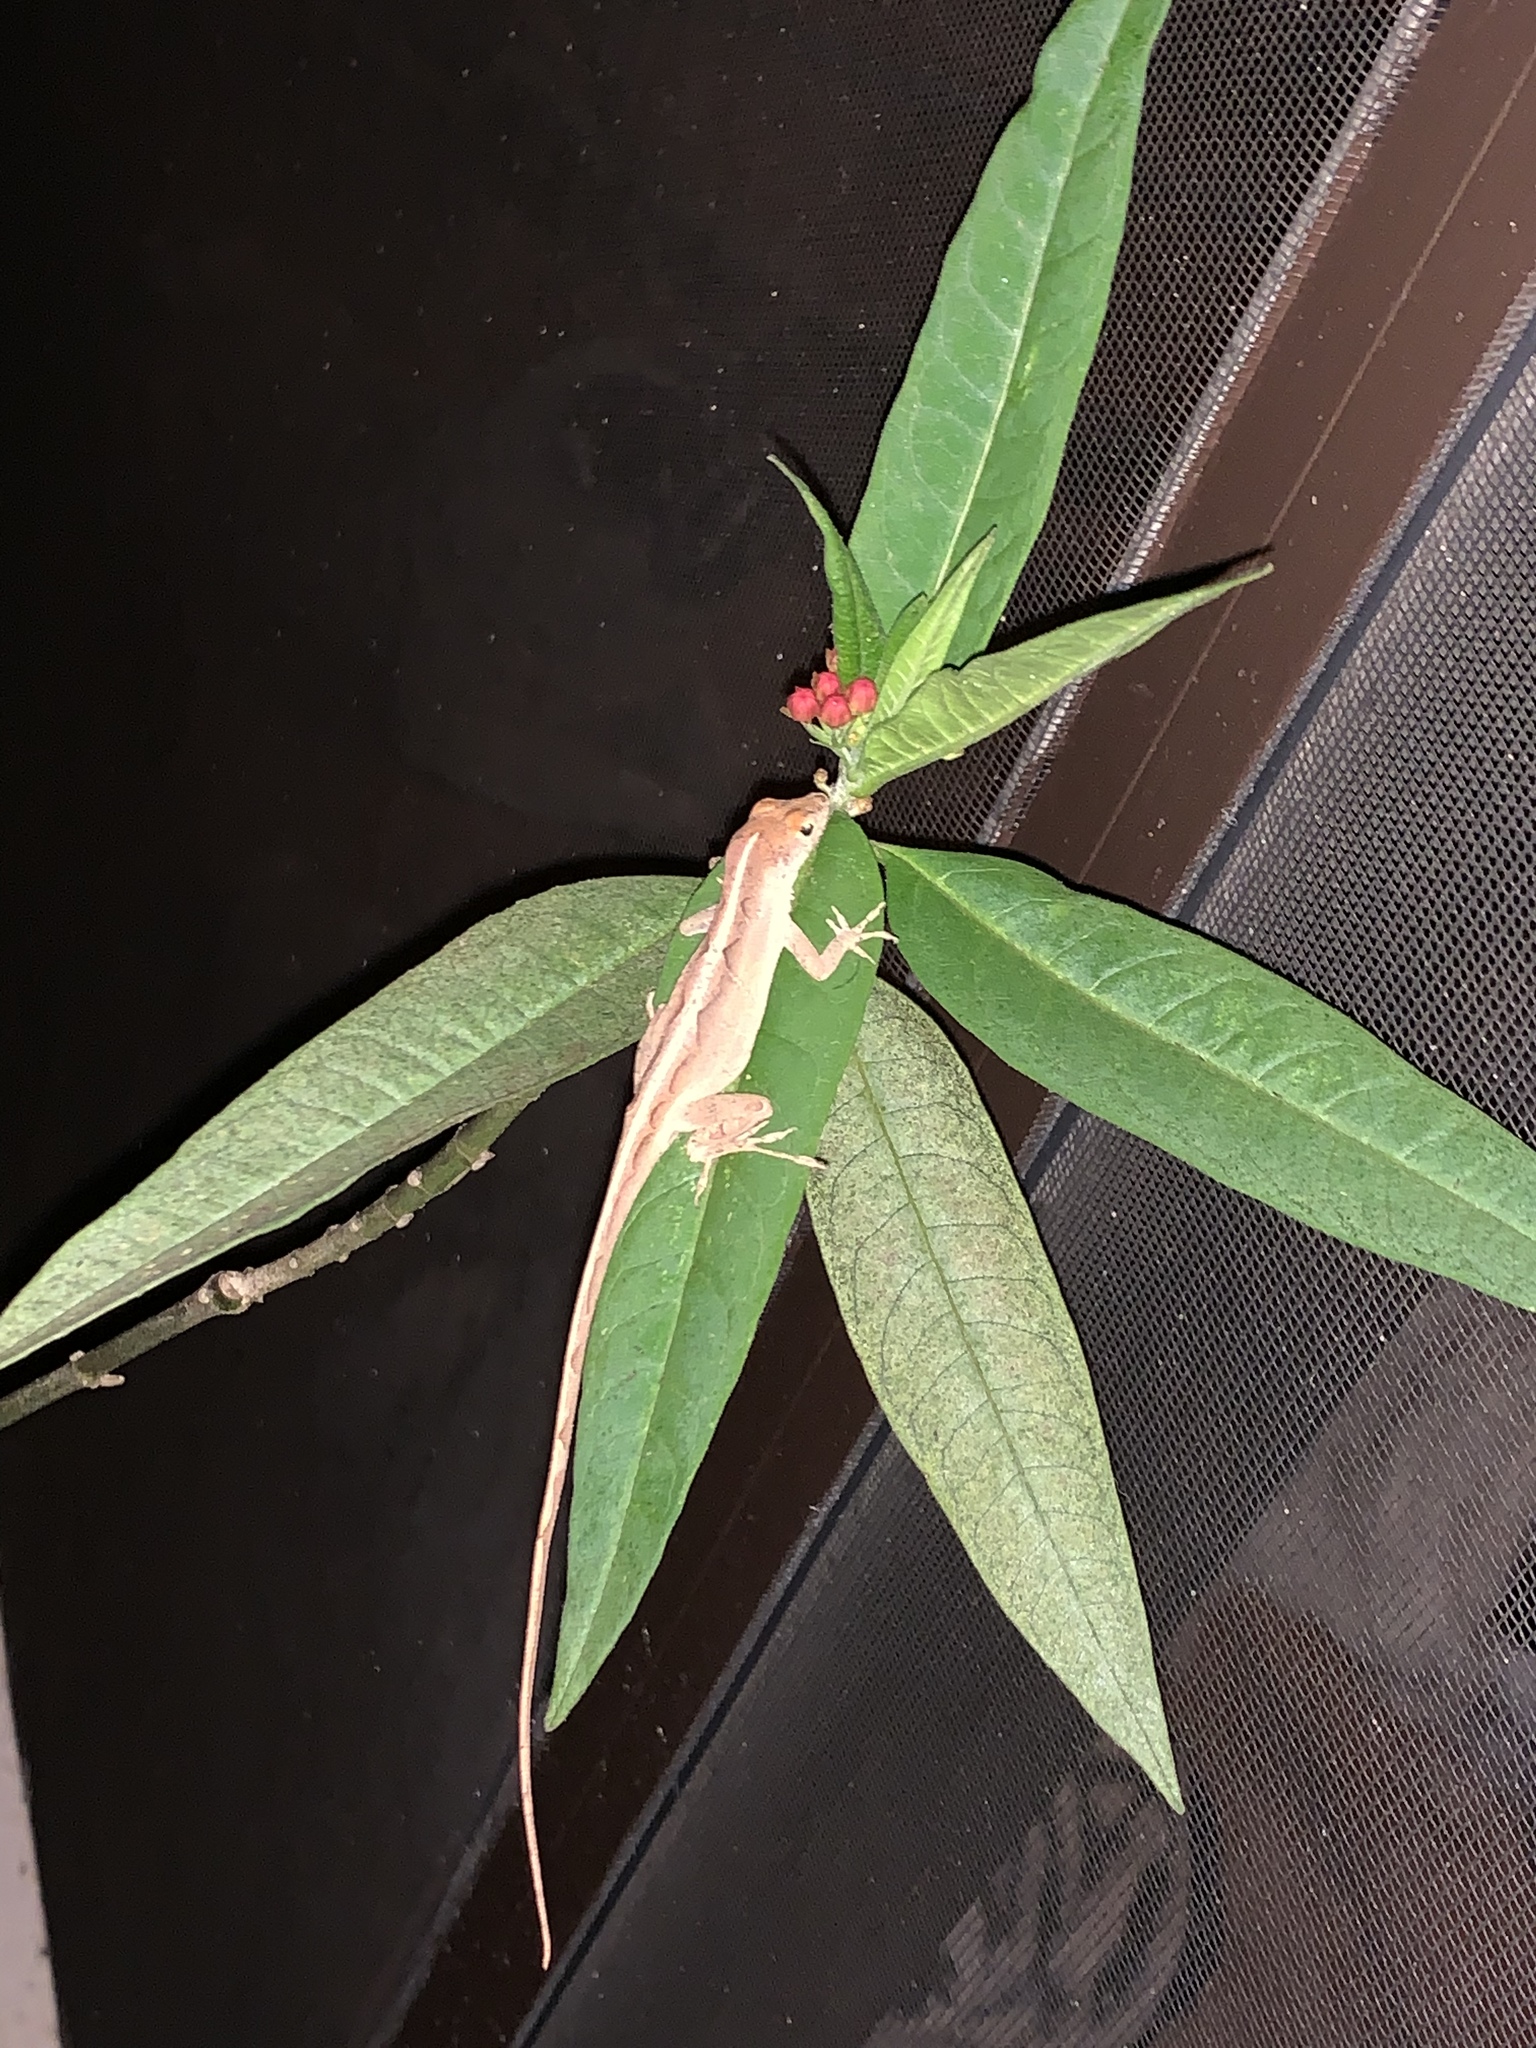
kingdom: Animalia
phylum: Chordata
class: Squamata
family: Dactyloidae
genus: Anolis
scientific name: Anolis sagrei
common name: Brown anole
